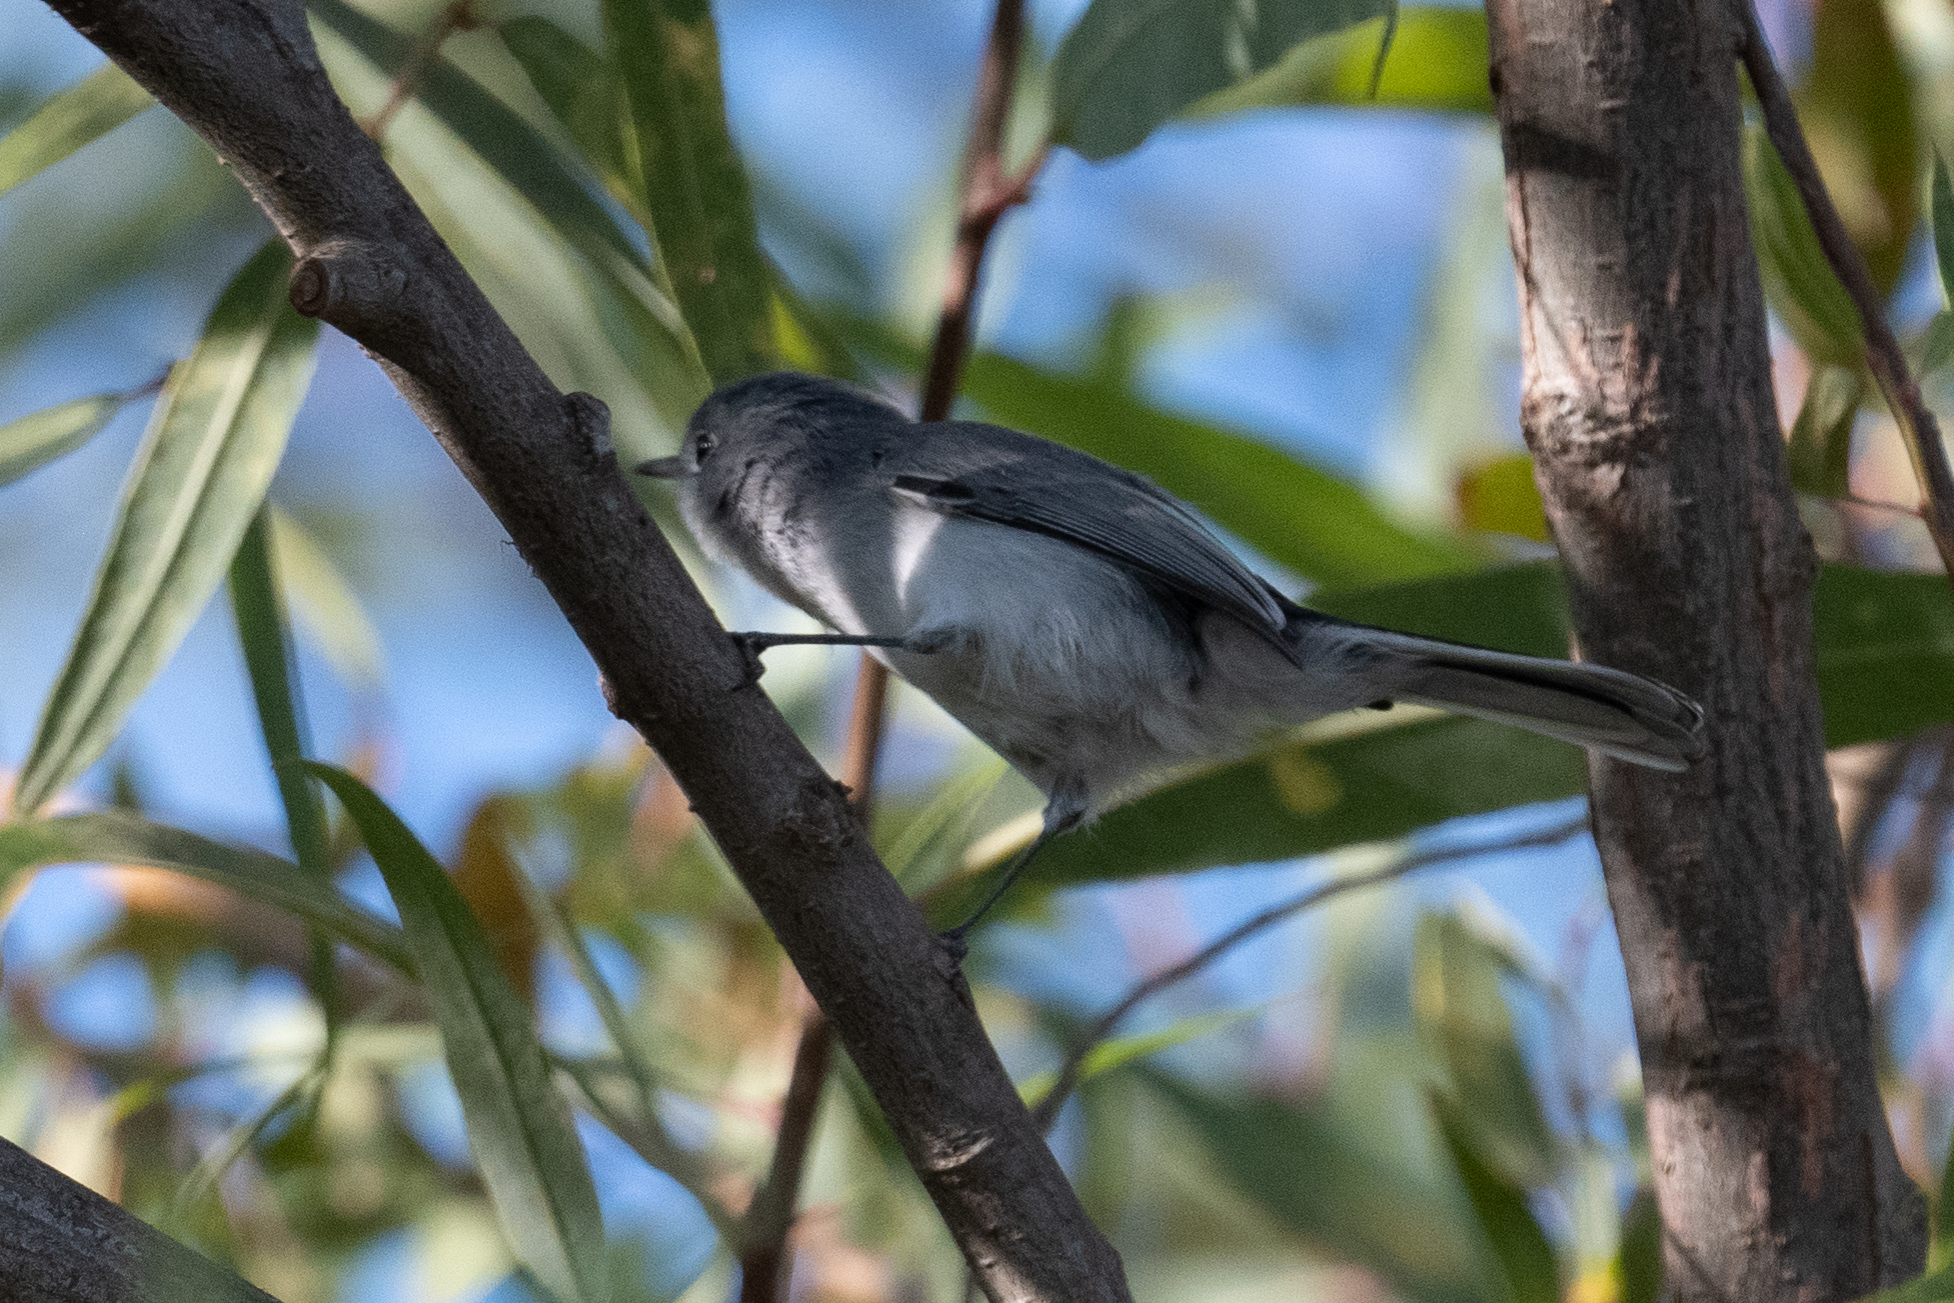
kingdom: Animalia
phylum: Chordata
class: Aves
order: Passeriformes
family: Polioptilidae
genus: Polioptila
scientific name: Polioptila caerulea
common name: Blue-gray gnatcatcher
